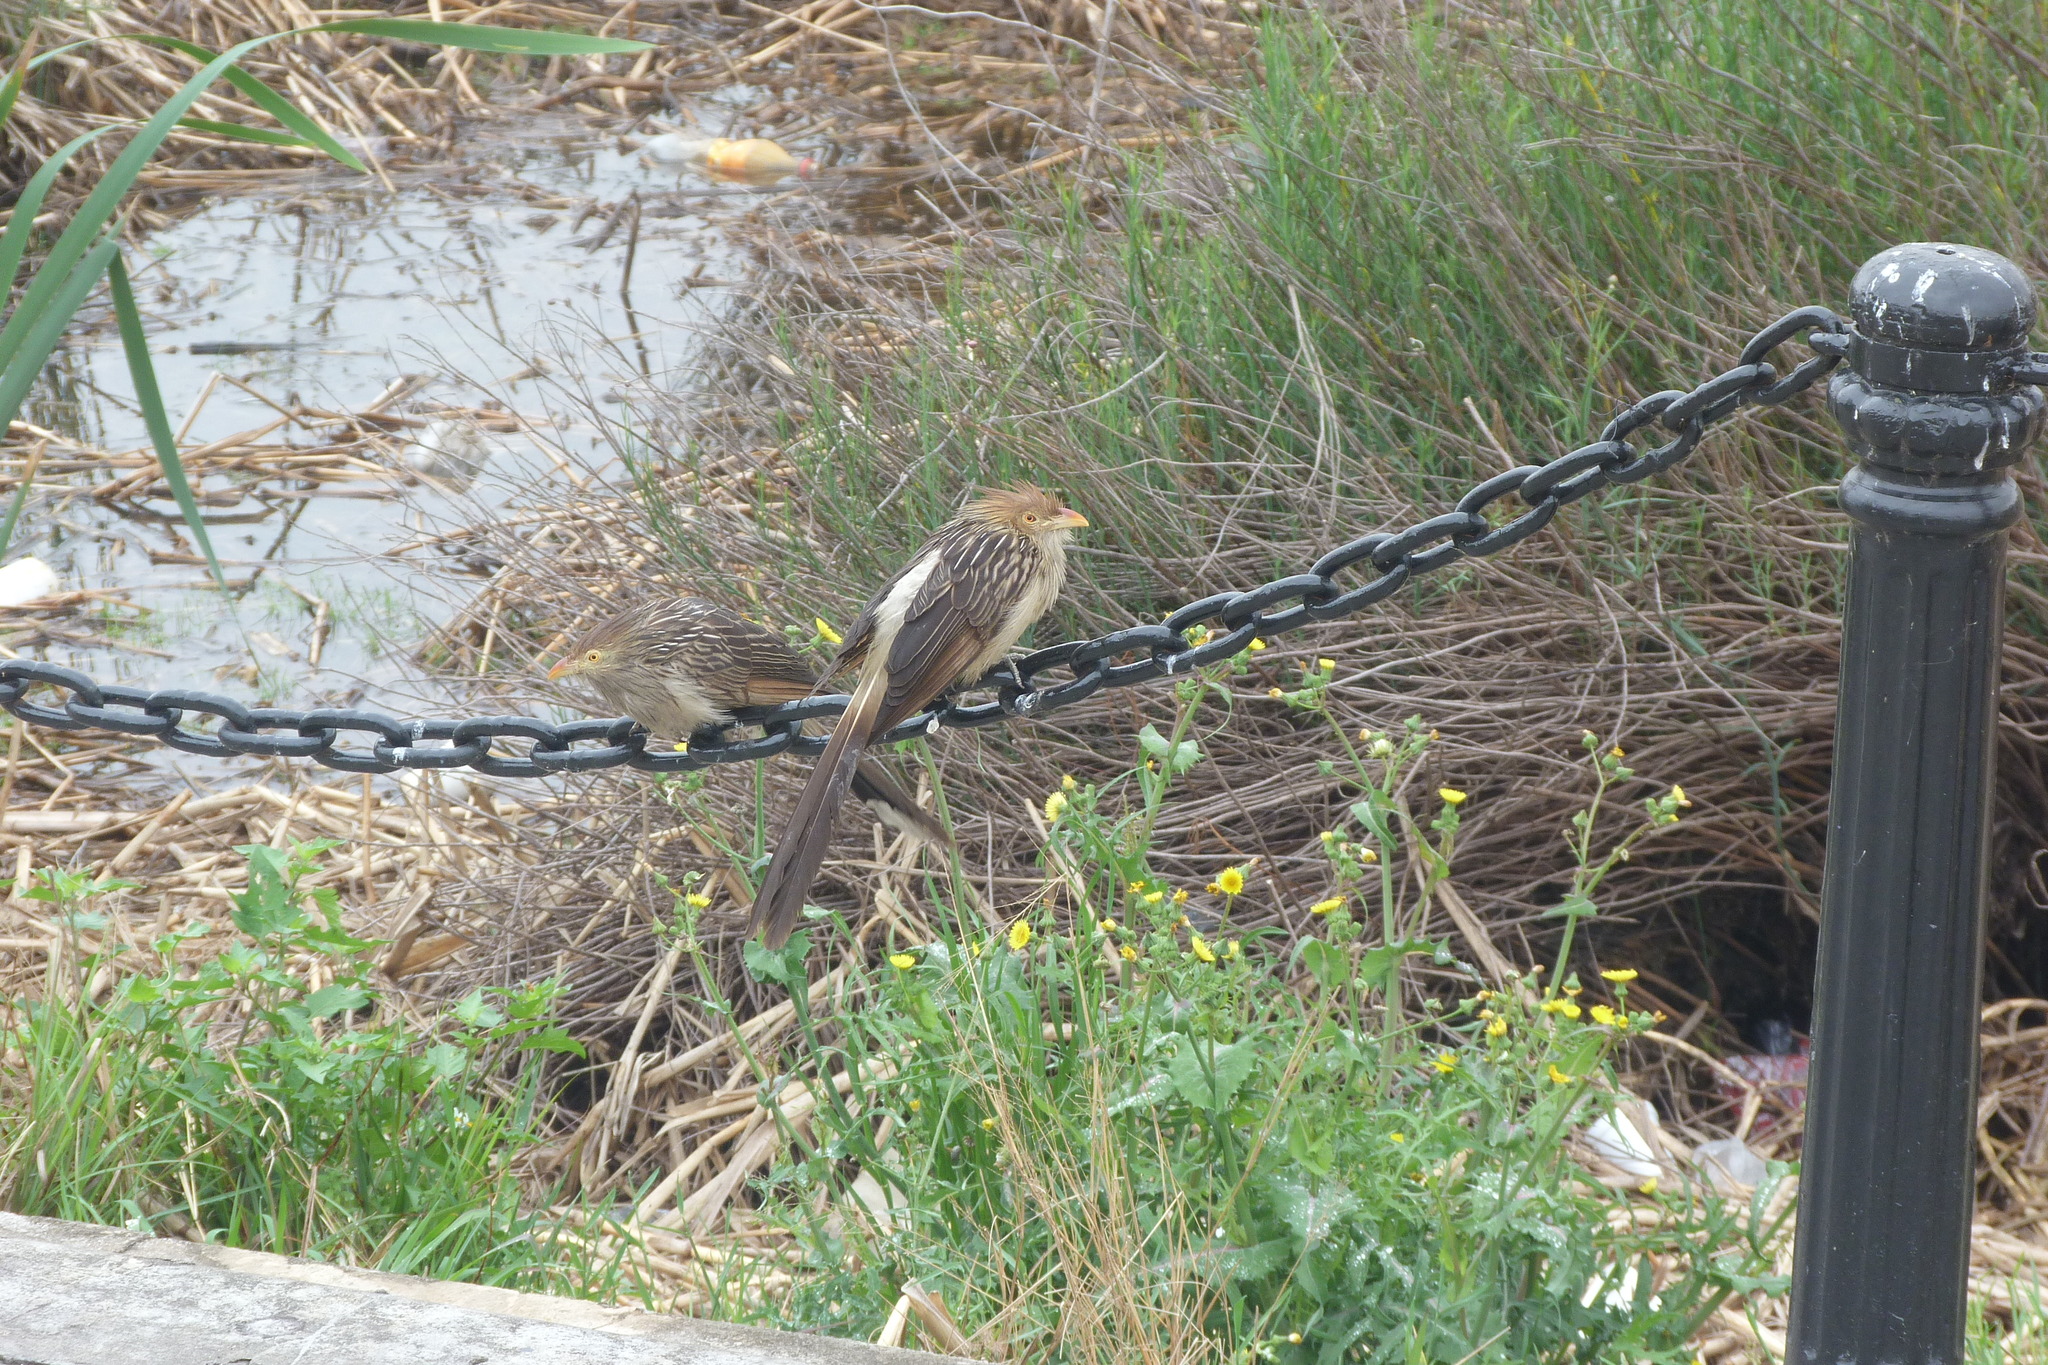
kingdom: Animalia
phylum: Chordata
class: Aves
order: Cuculiformes
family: Cuculidae
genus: Guira
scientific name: Guira guira
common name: Guira cuckoo
